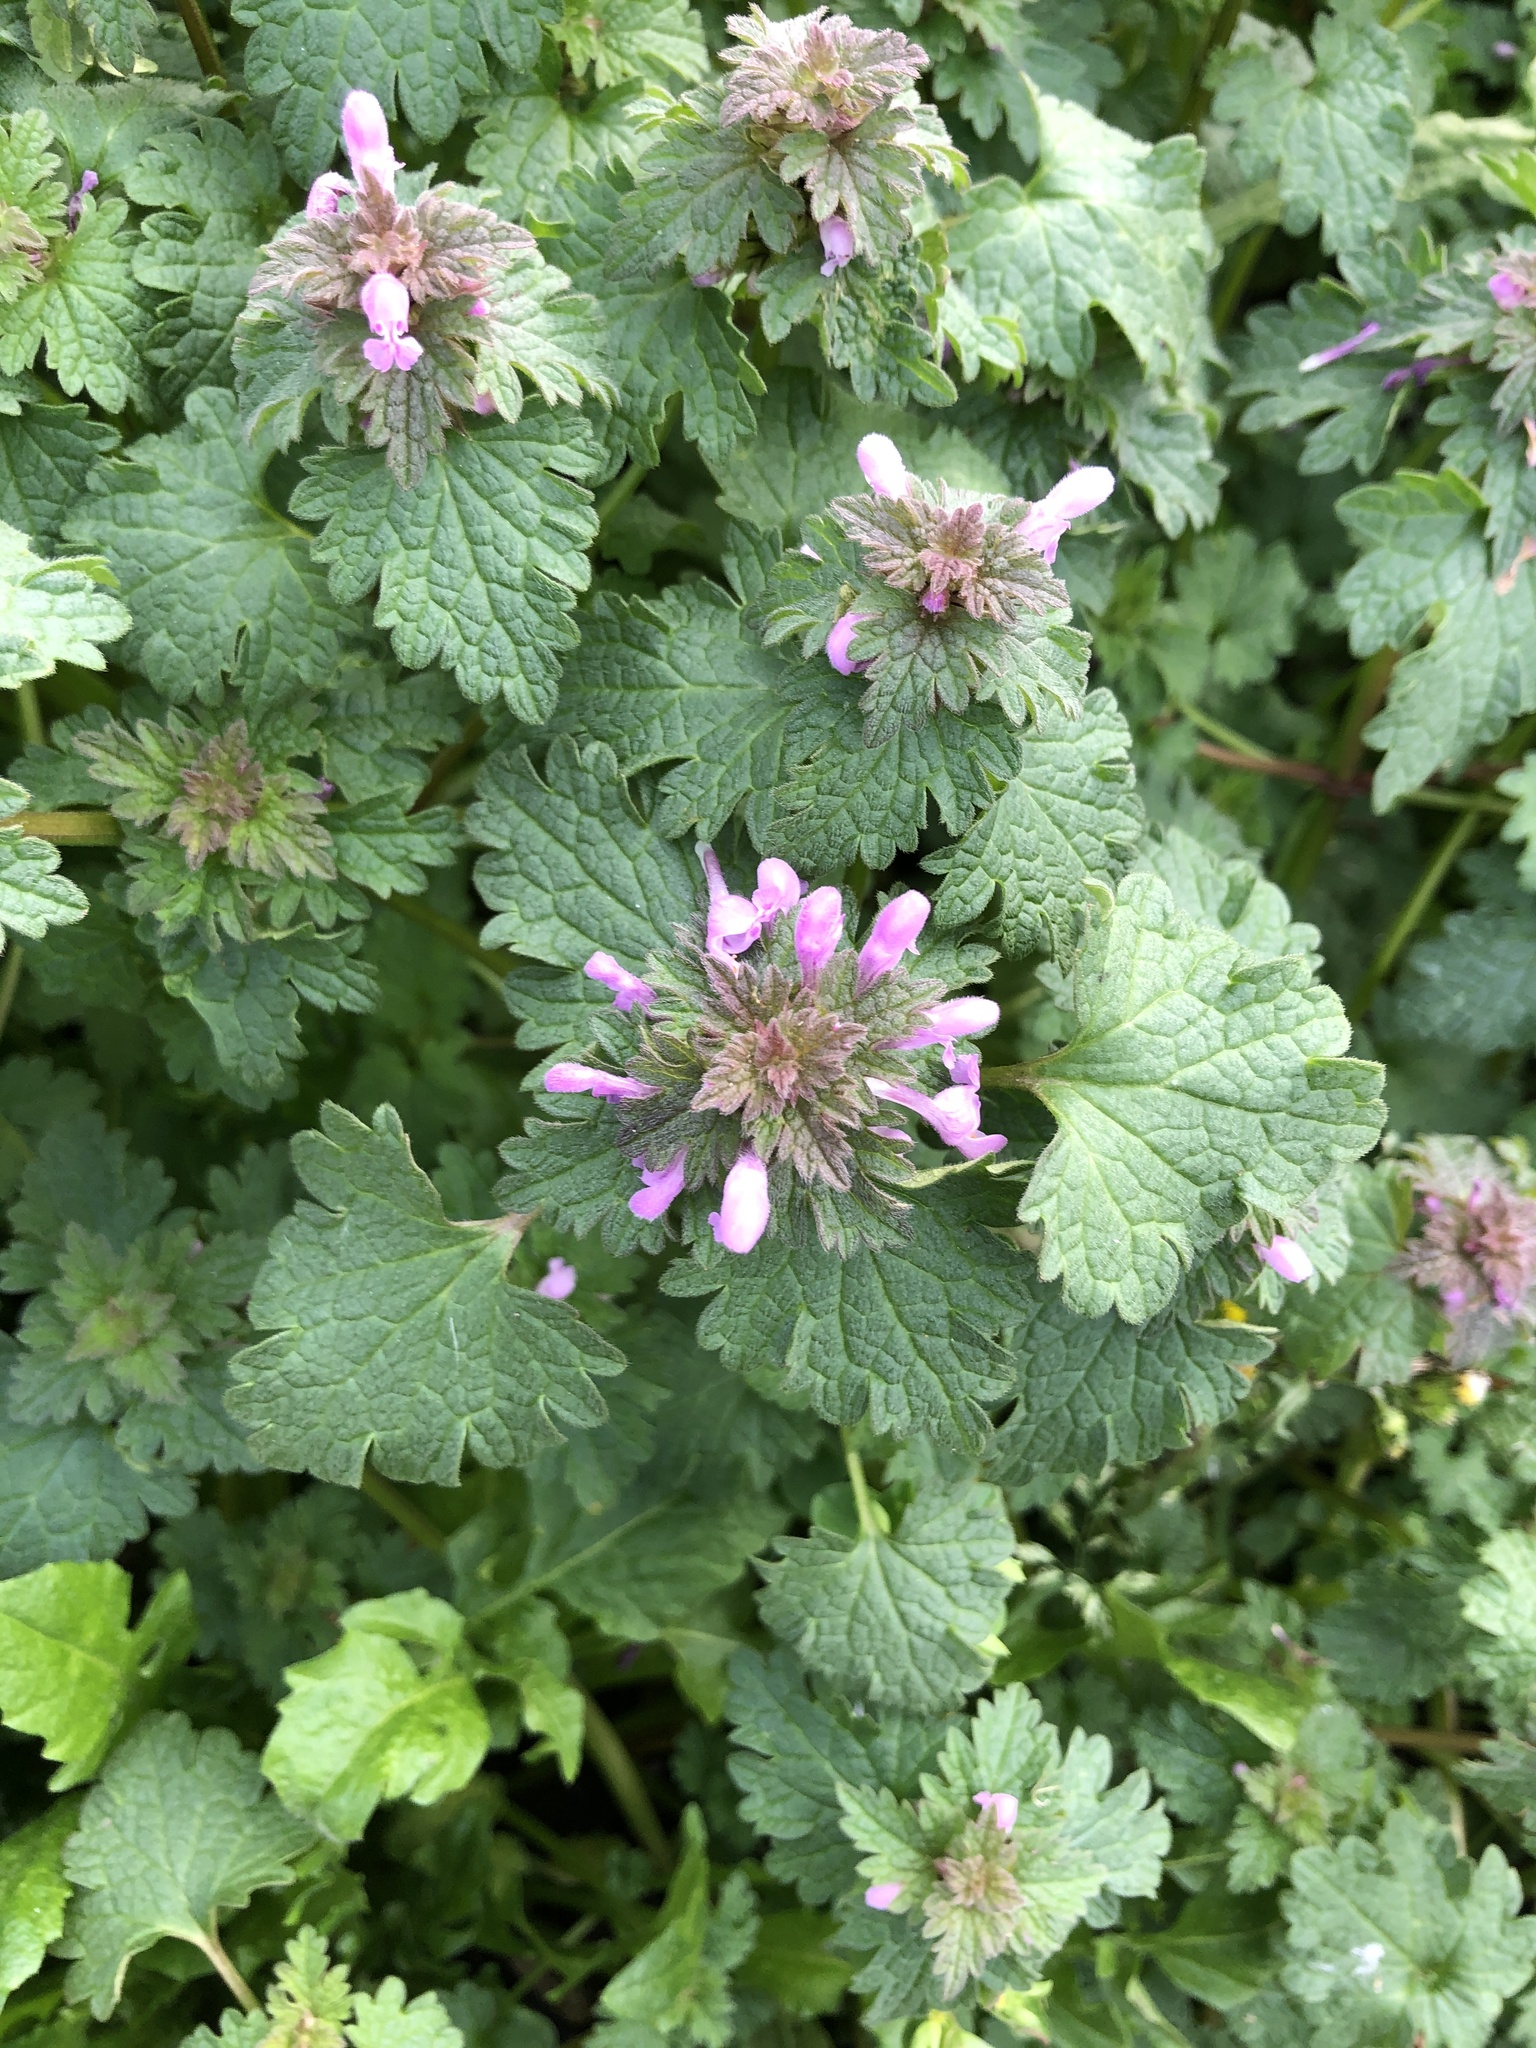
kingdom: Plantae
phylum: Tracheophyta
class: Magnoliopsida
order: Lamiales
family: Lamiaceae
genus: Lamium
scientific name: Lamium purpureum
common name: Red dead-nettle
